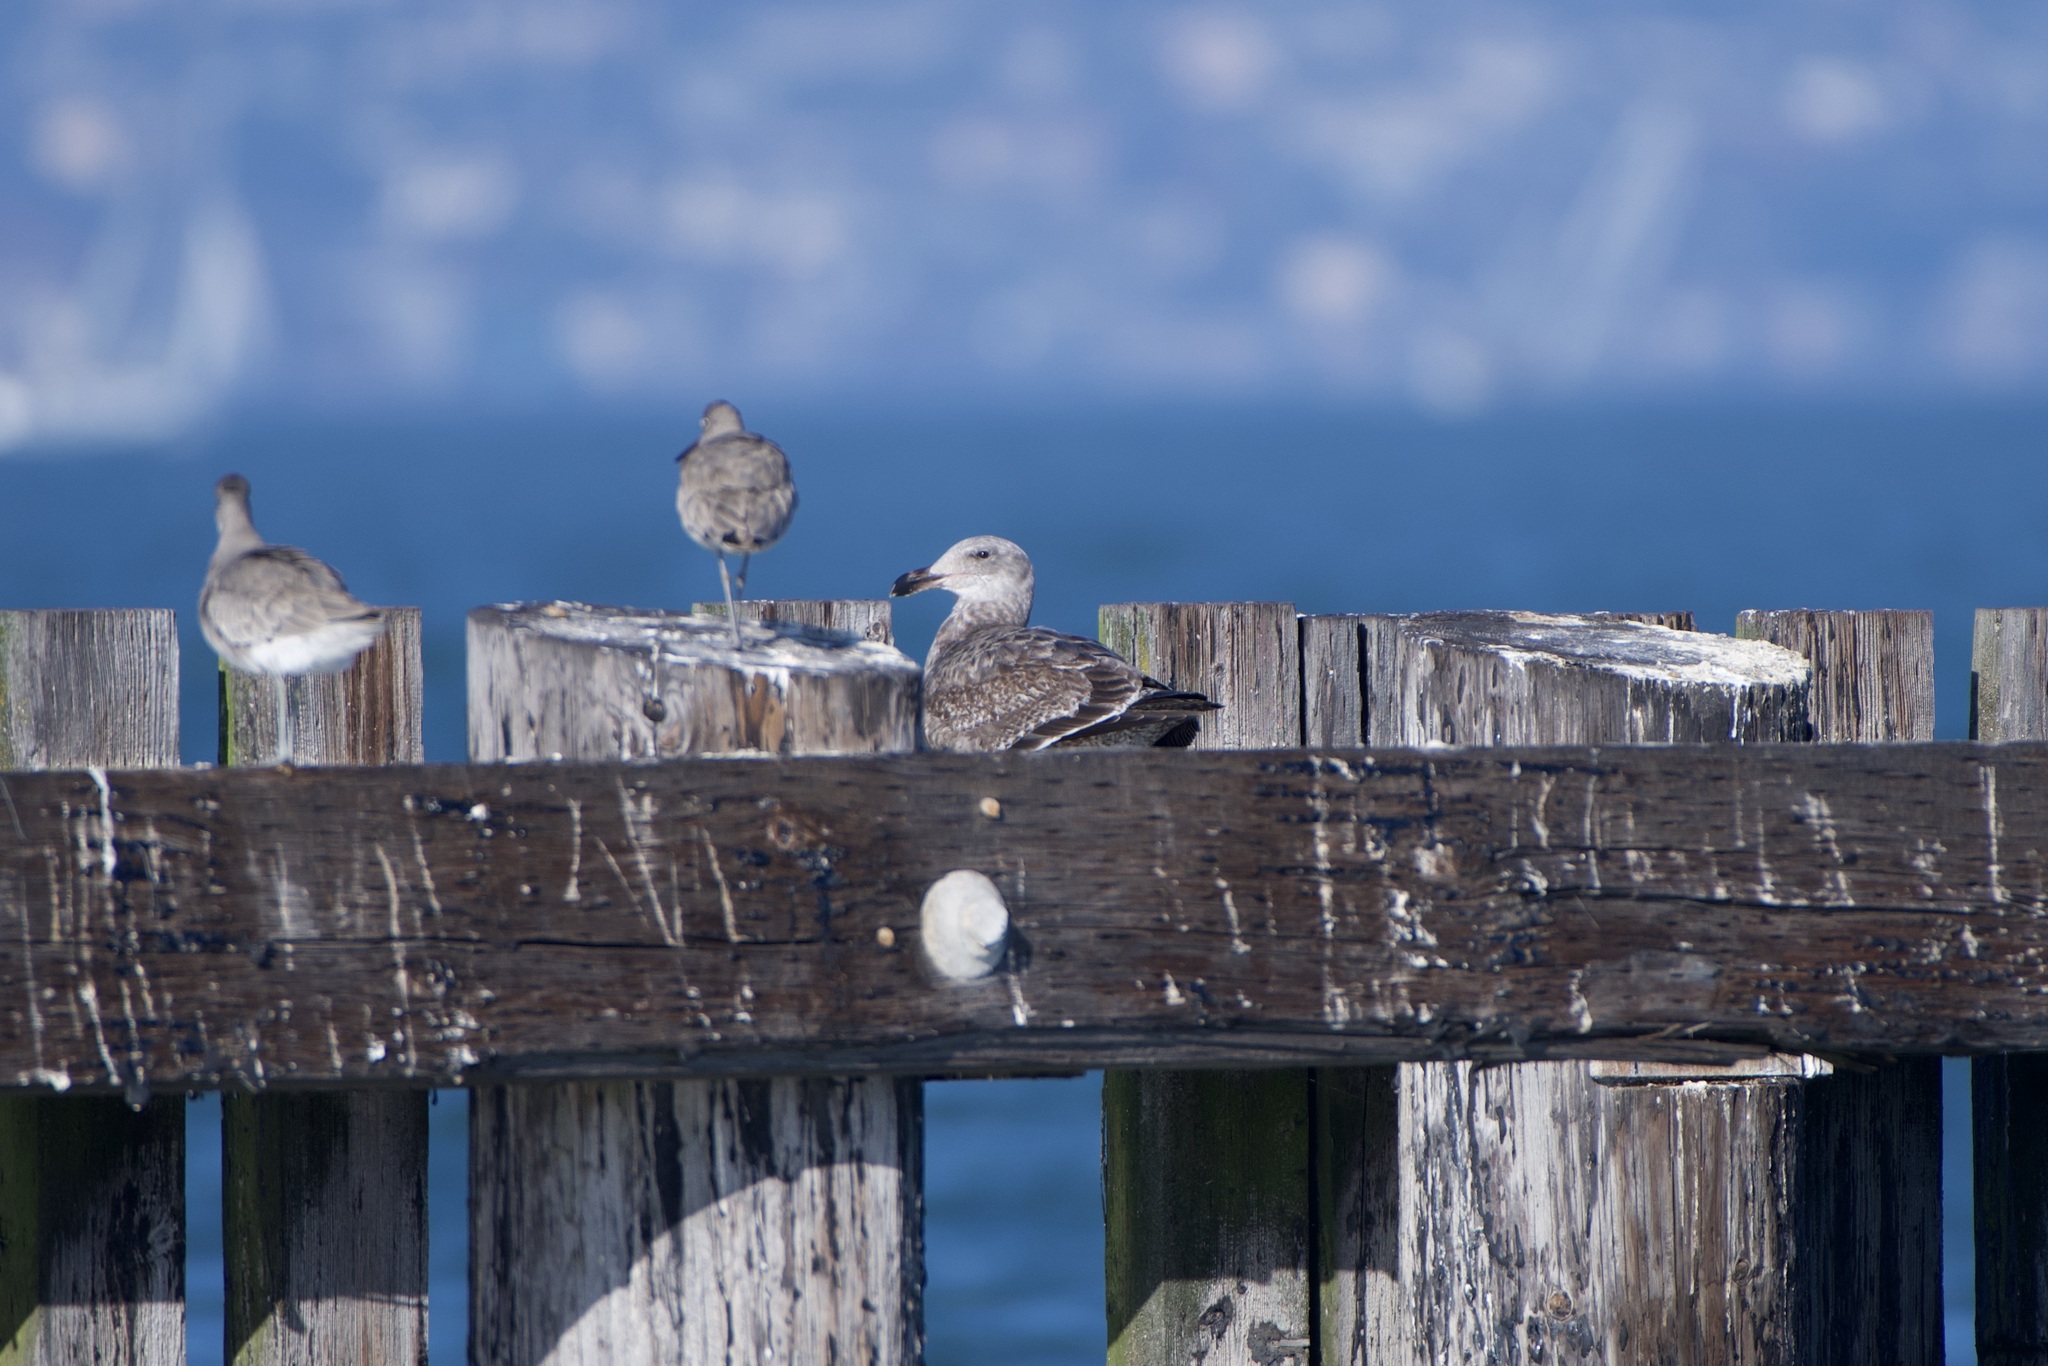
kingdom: Animalia
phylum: Chordata
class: Aves
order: Charadriiformes
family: Laridae
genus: Larus
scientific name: Larus occidentalis
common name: Western gull
